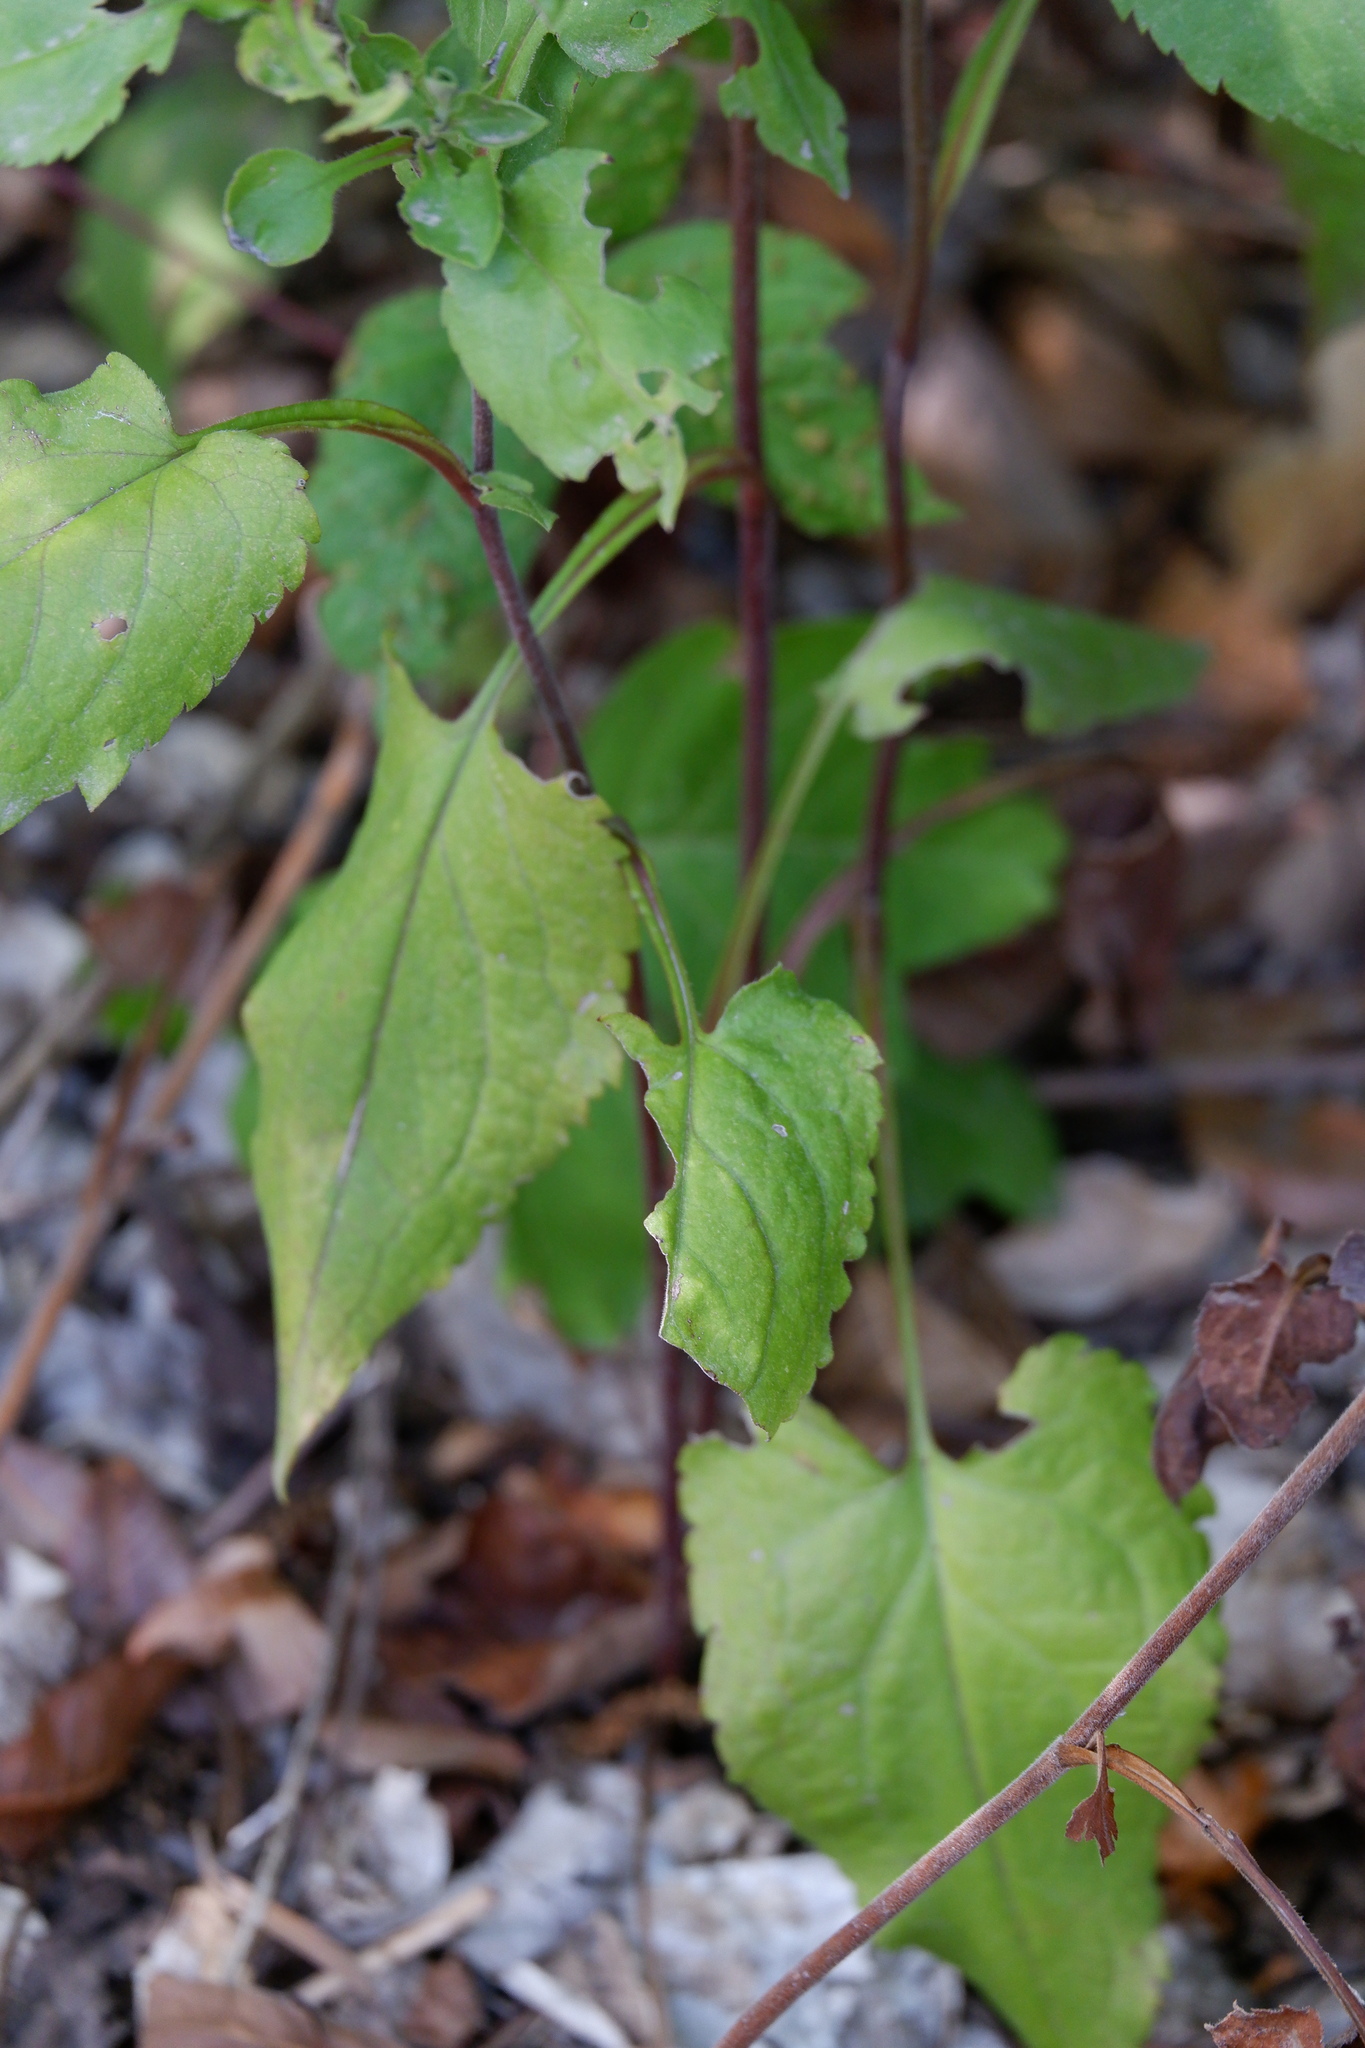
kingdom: Plantae
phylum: Tracheophyta
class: Magnoliopsida
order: Asterales
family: Asteraceae
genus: Symphyotrichum
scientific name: Symphyotrichum drummondii
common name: Drummond's aster
